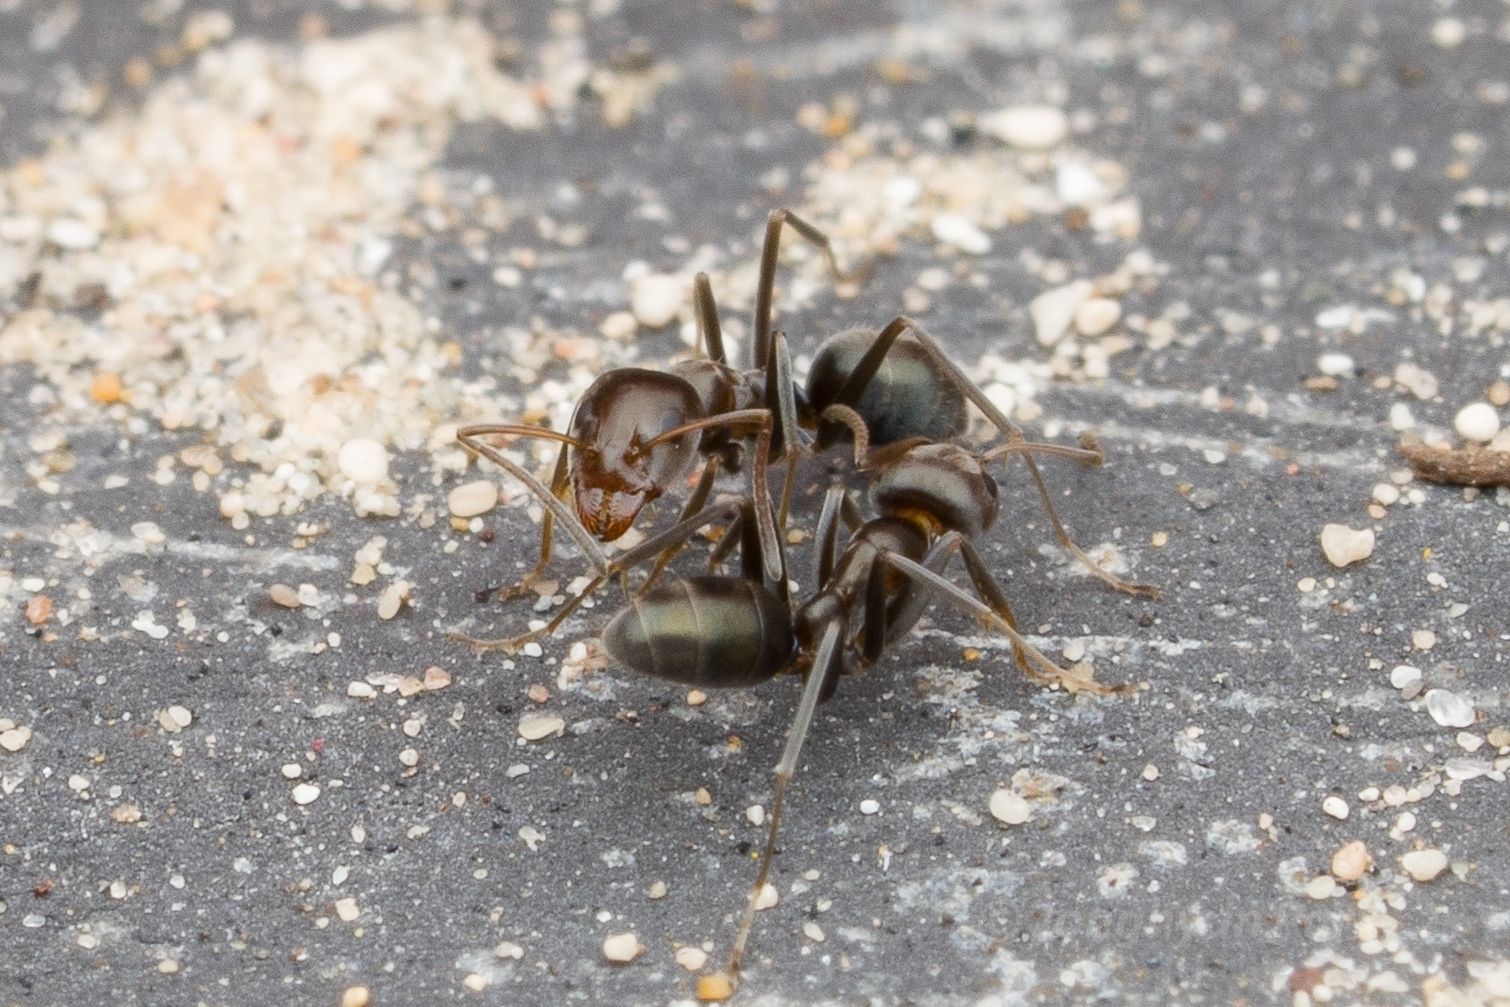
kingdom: Animalia
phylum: Arthropoda
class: Insecta
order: Hymenoptera
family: Formicidae
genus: Iridomyrmex
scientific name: Iridomyrmex suchieri
